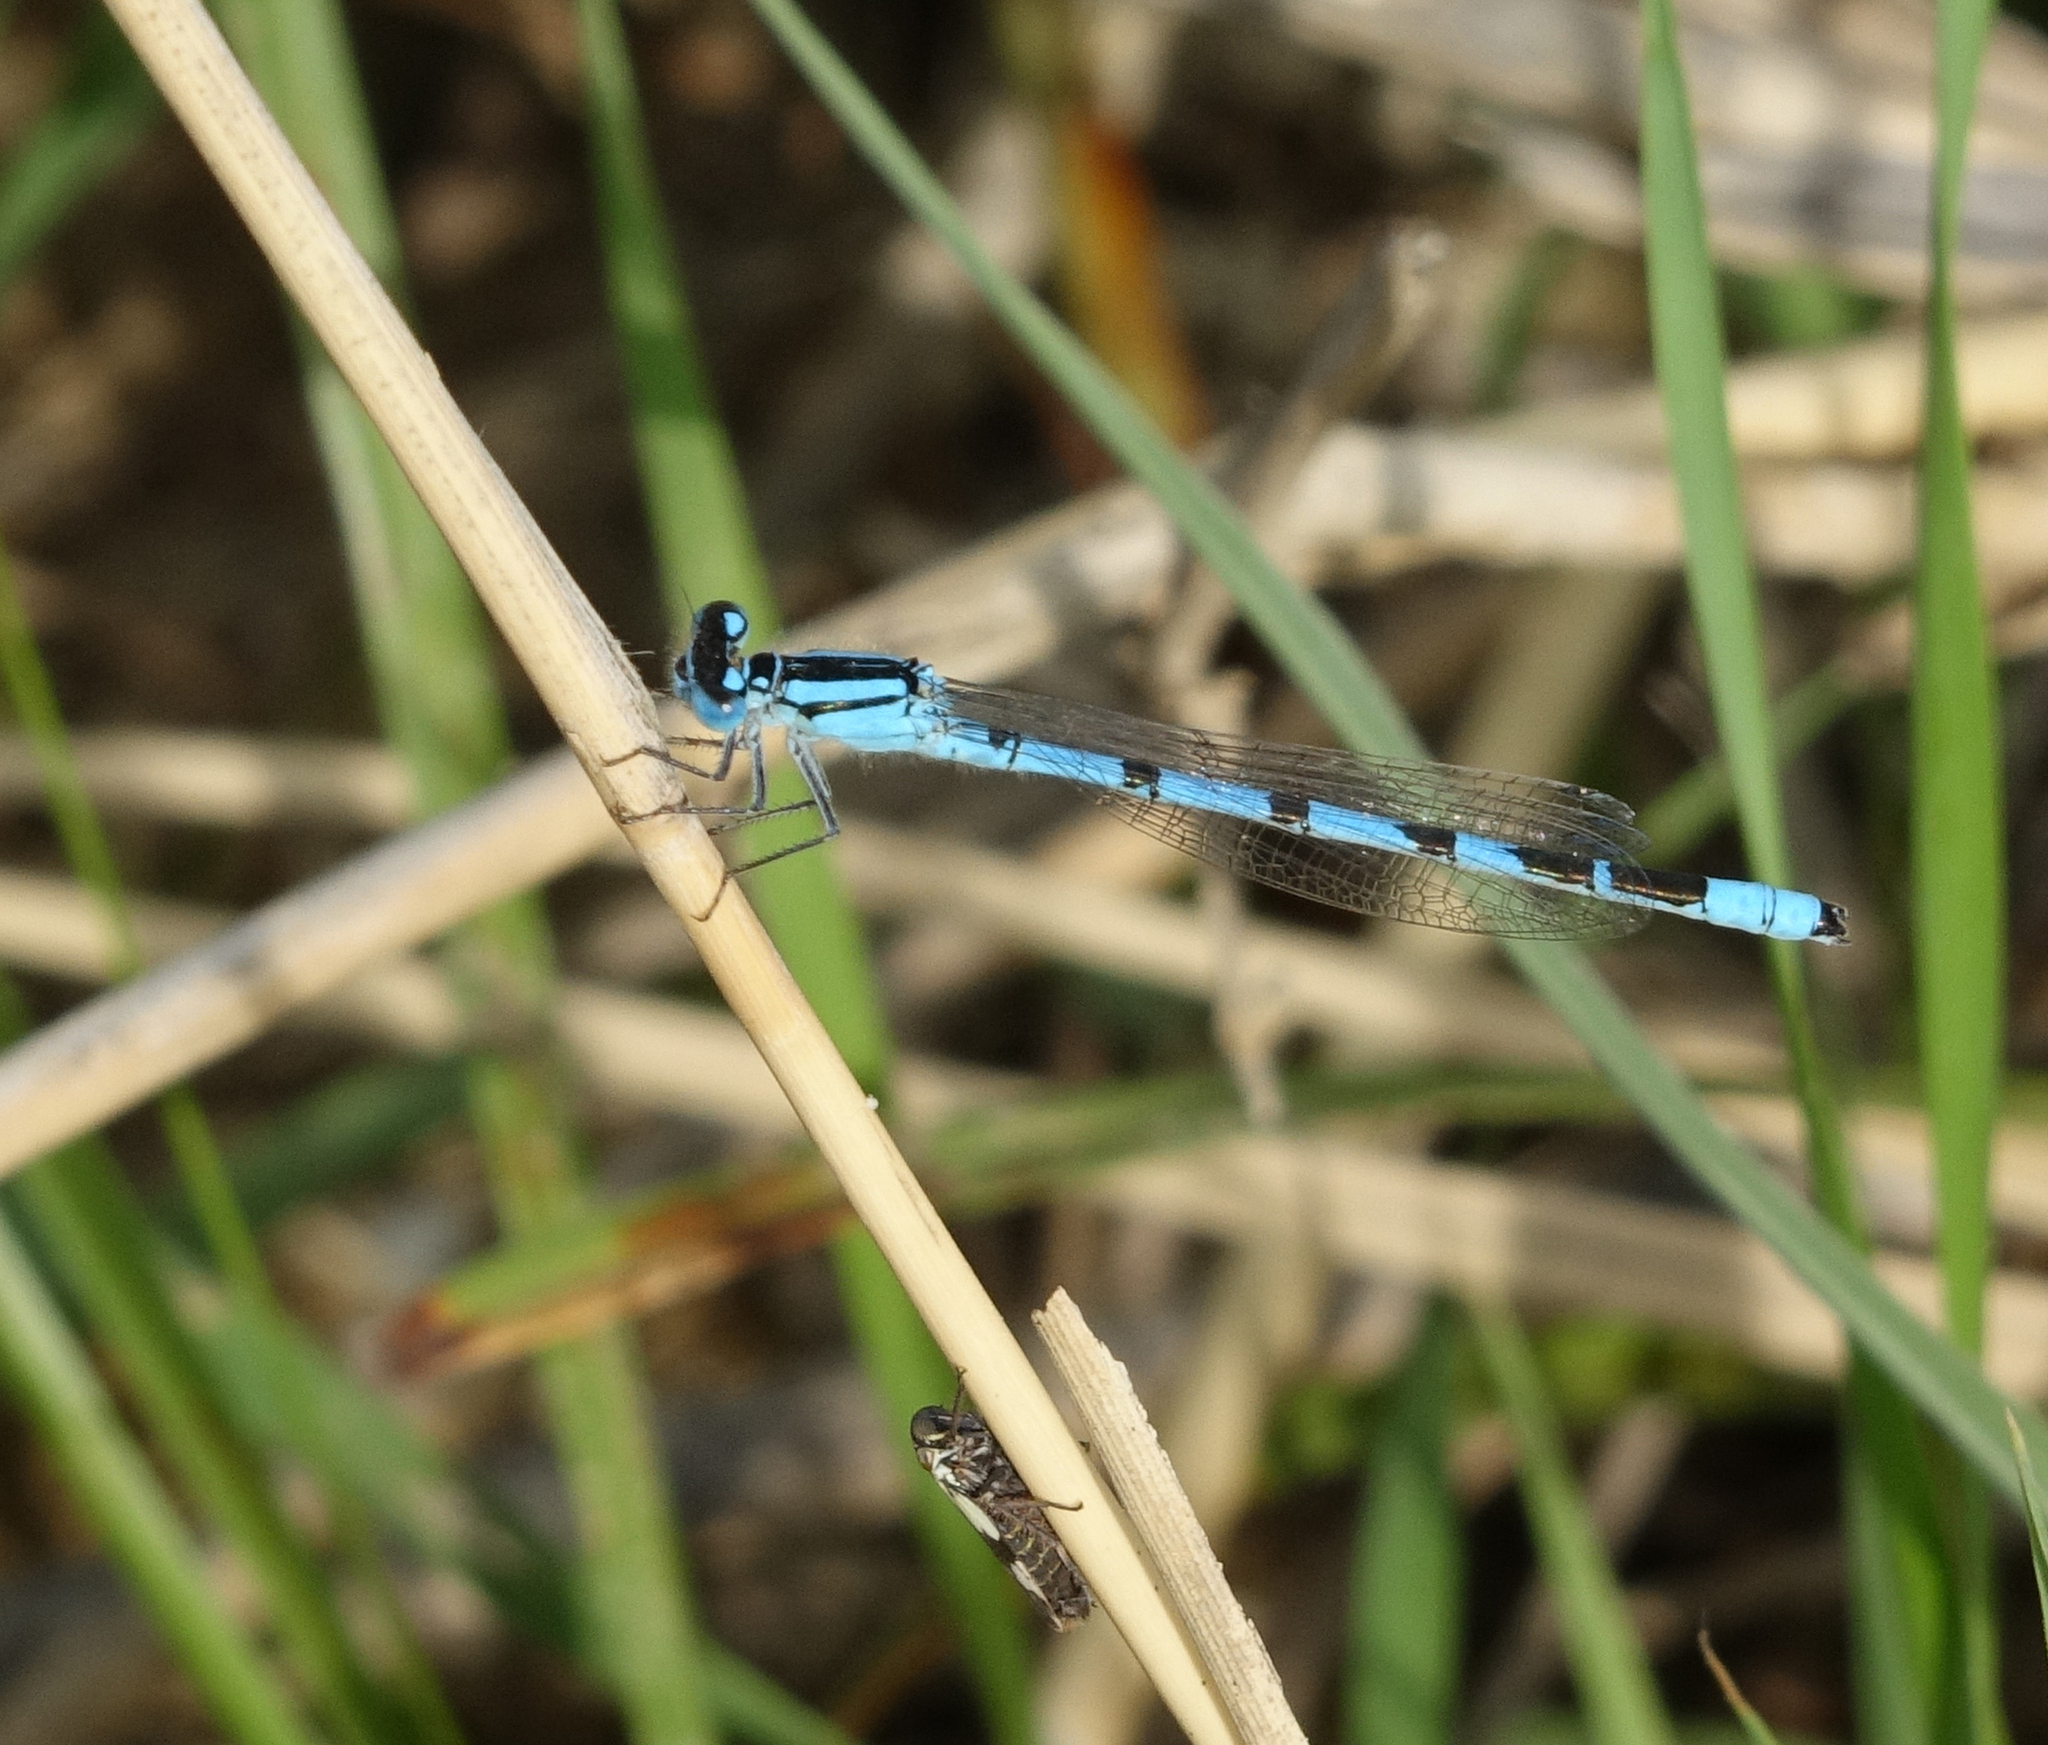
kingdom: Animalia
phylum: Arthropoda
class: Insecta
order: Odonata
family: Coenagrionidae
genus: Enallagma
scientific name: Enallagma cyathigerum
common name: Common blue damselfly
